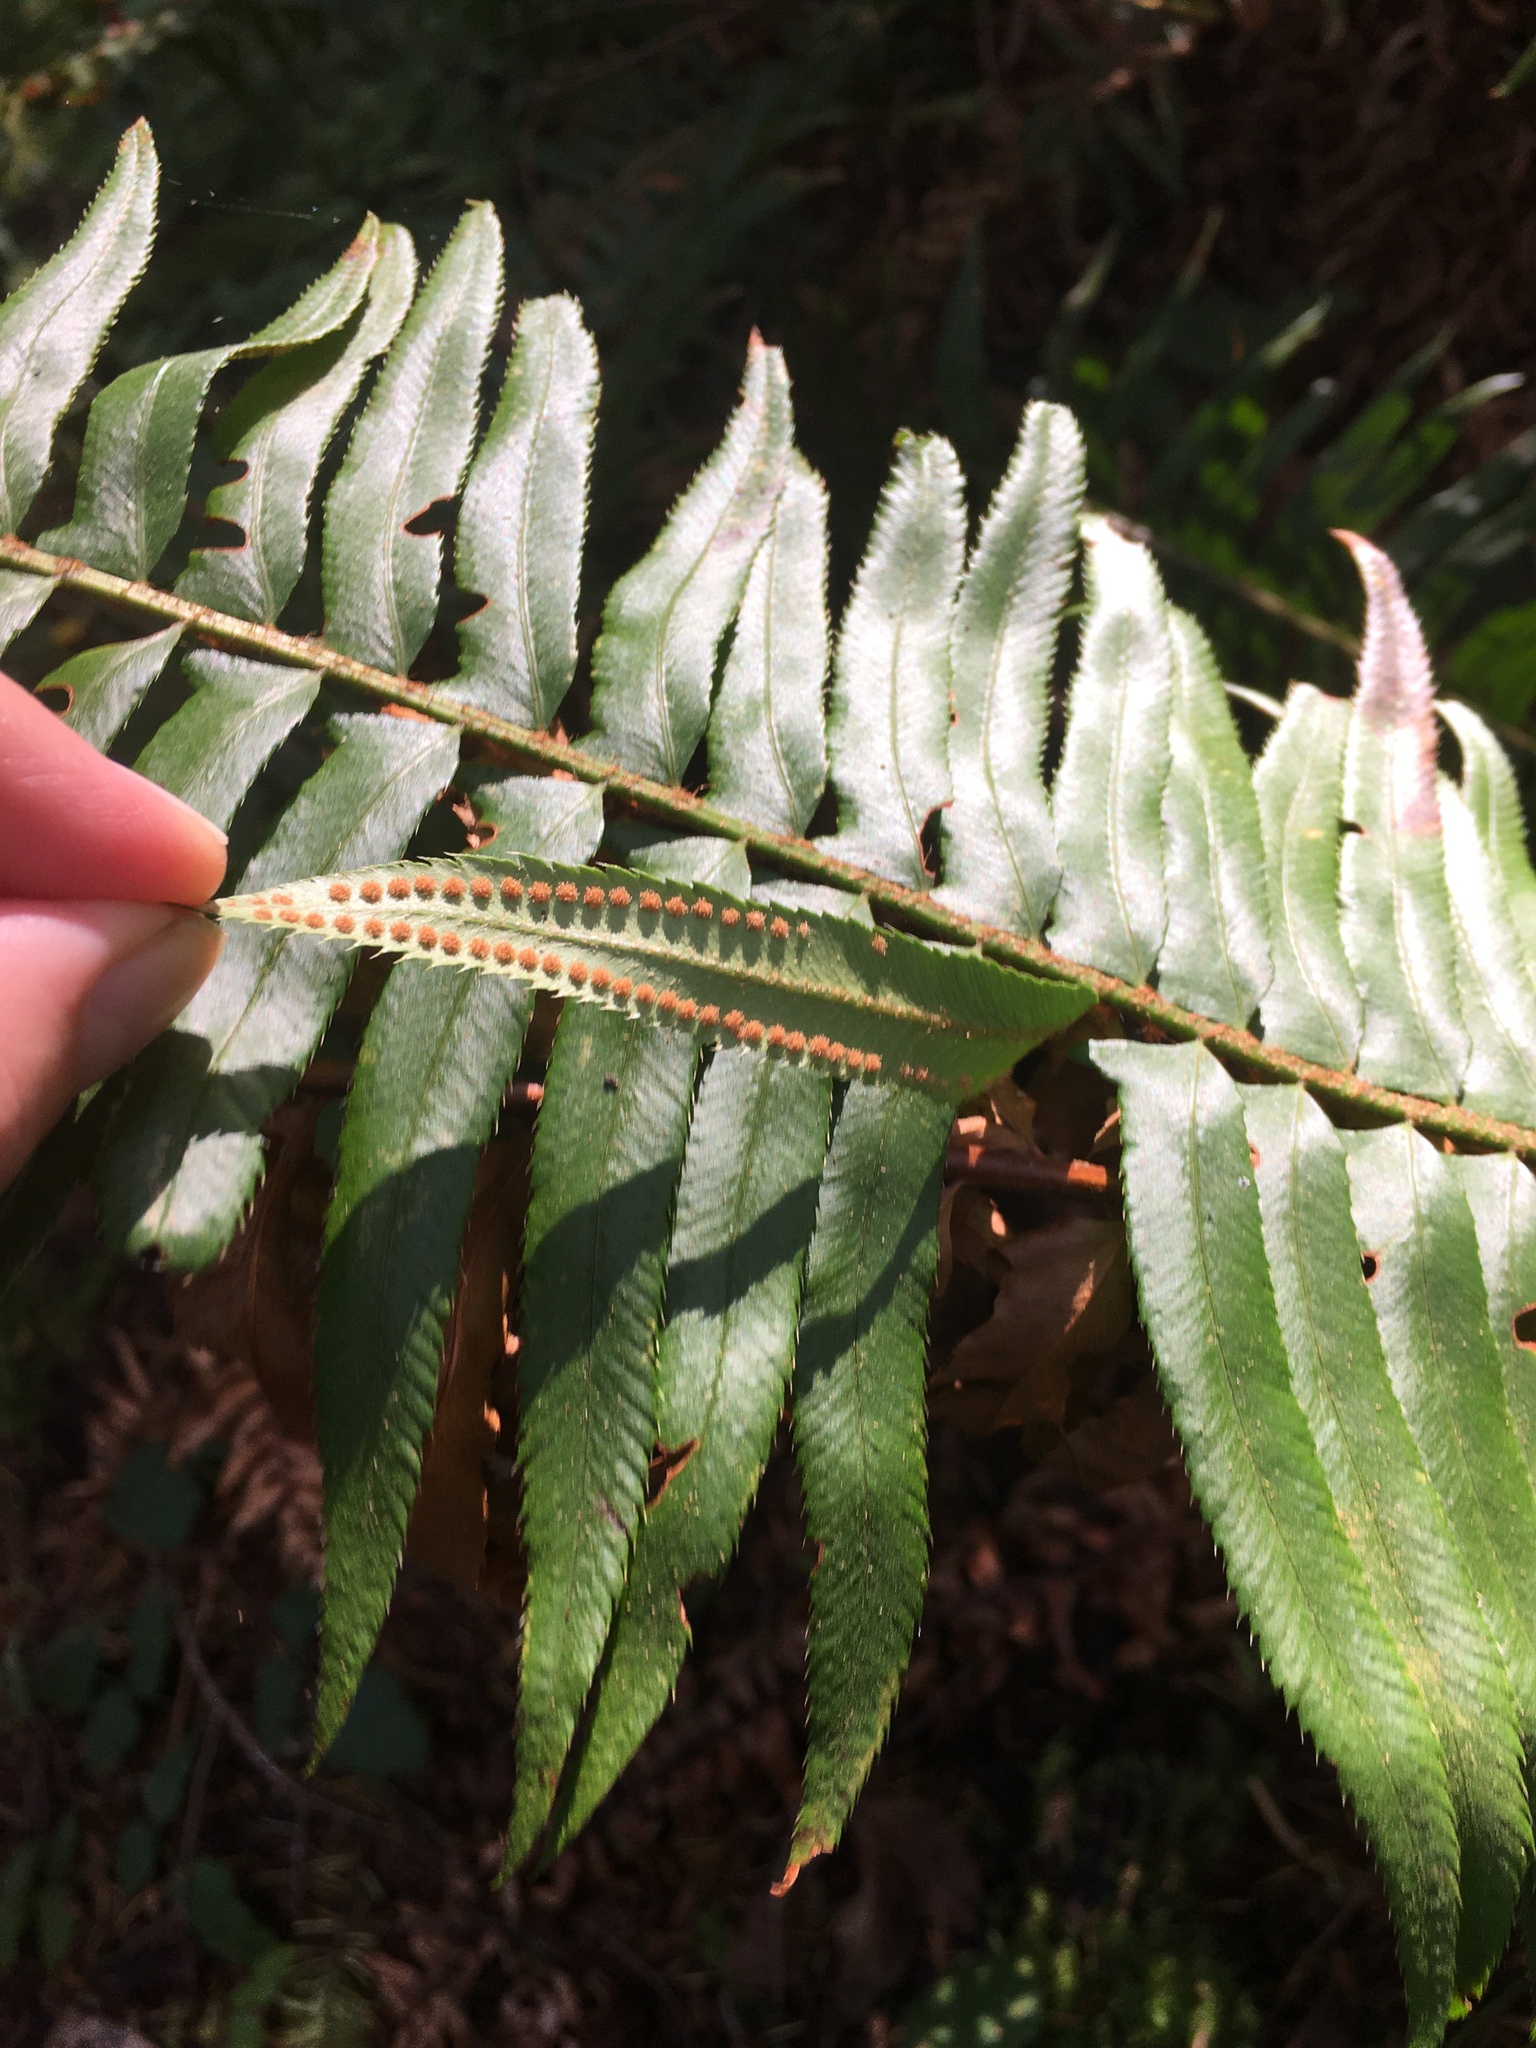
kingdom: Plantae
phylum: Tracheophyta
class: Polypodiopsida
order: Polypodiales
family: Dryopteridaceae
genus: Polystichum
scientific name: Polystichum munitum
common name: Western sword-fern
